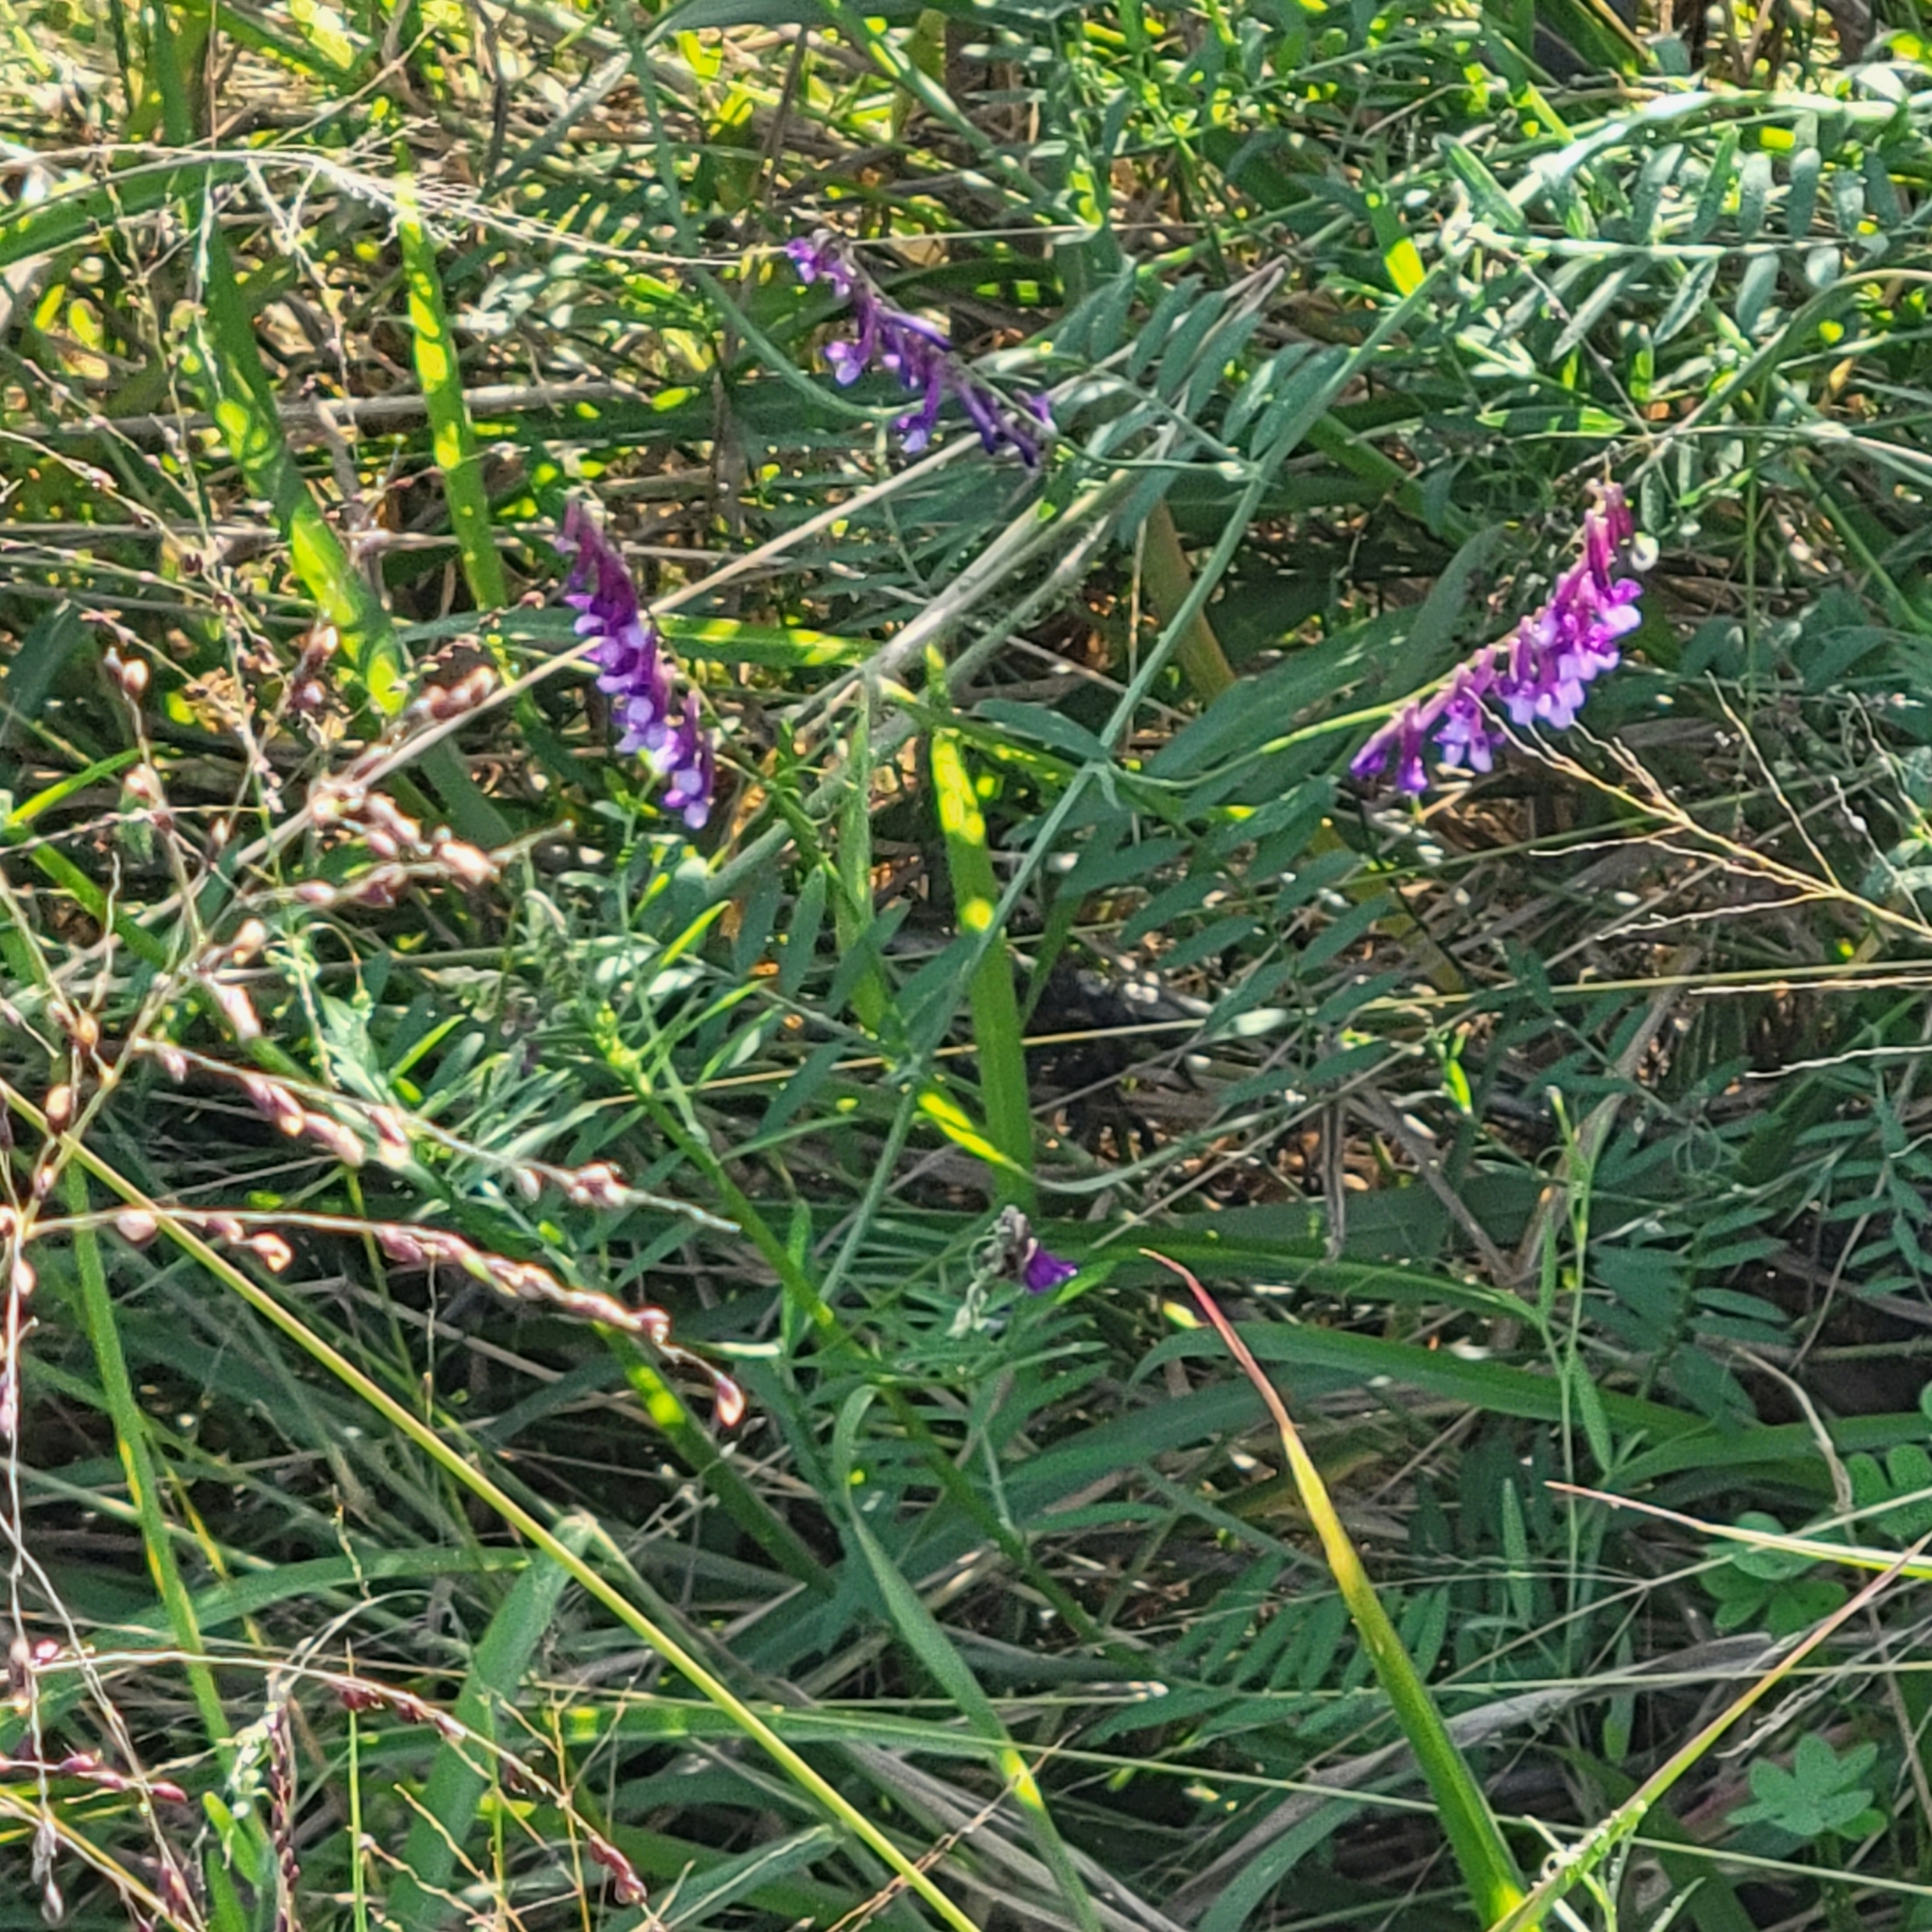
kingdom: Plantae
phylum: Tracheophyta
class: Magnoliopsida
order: Fabales
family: Fabaceae
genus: Vicia
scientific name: Vicia villosa
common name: Fodder vetch
